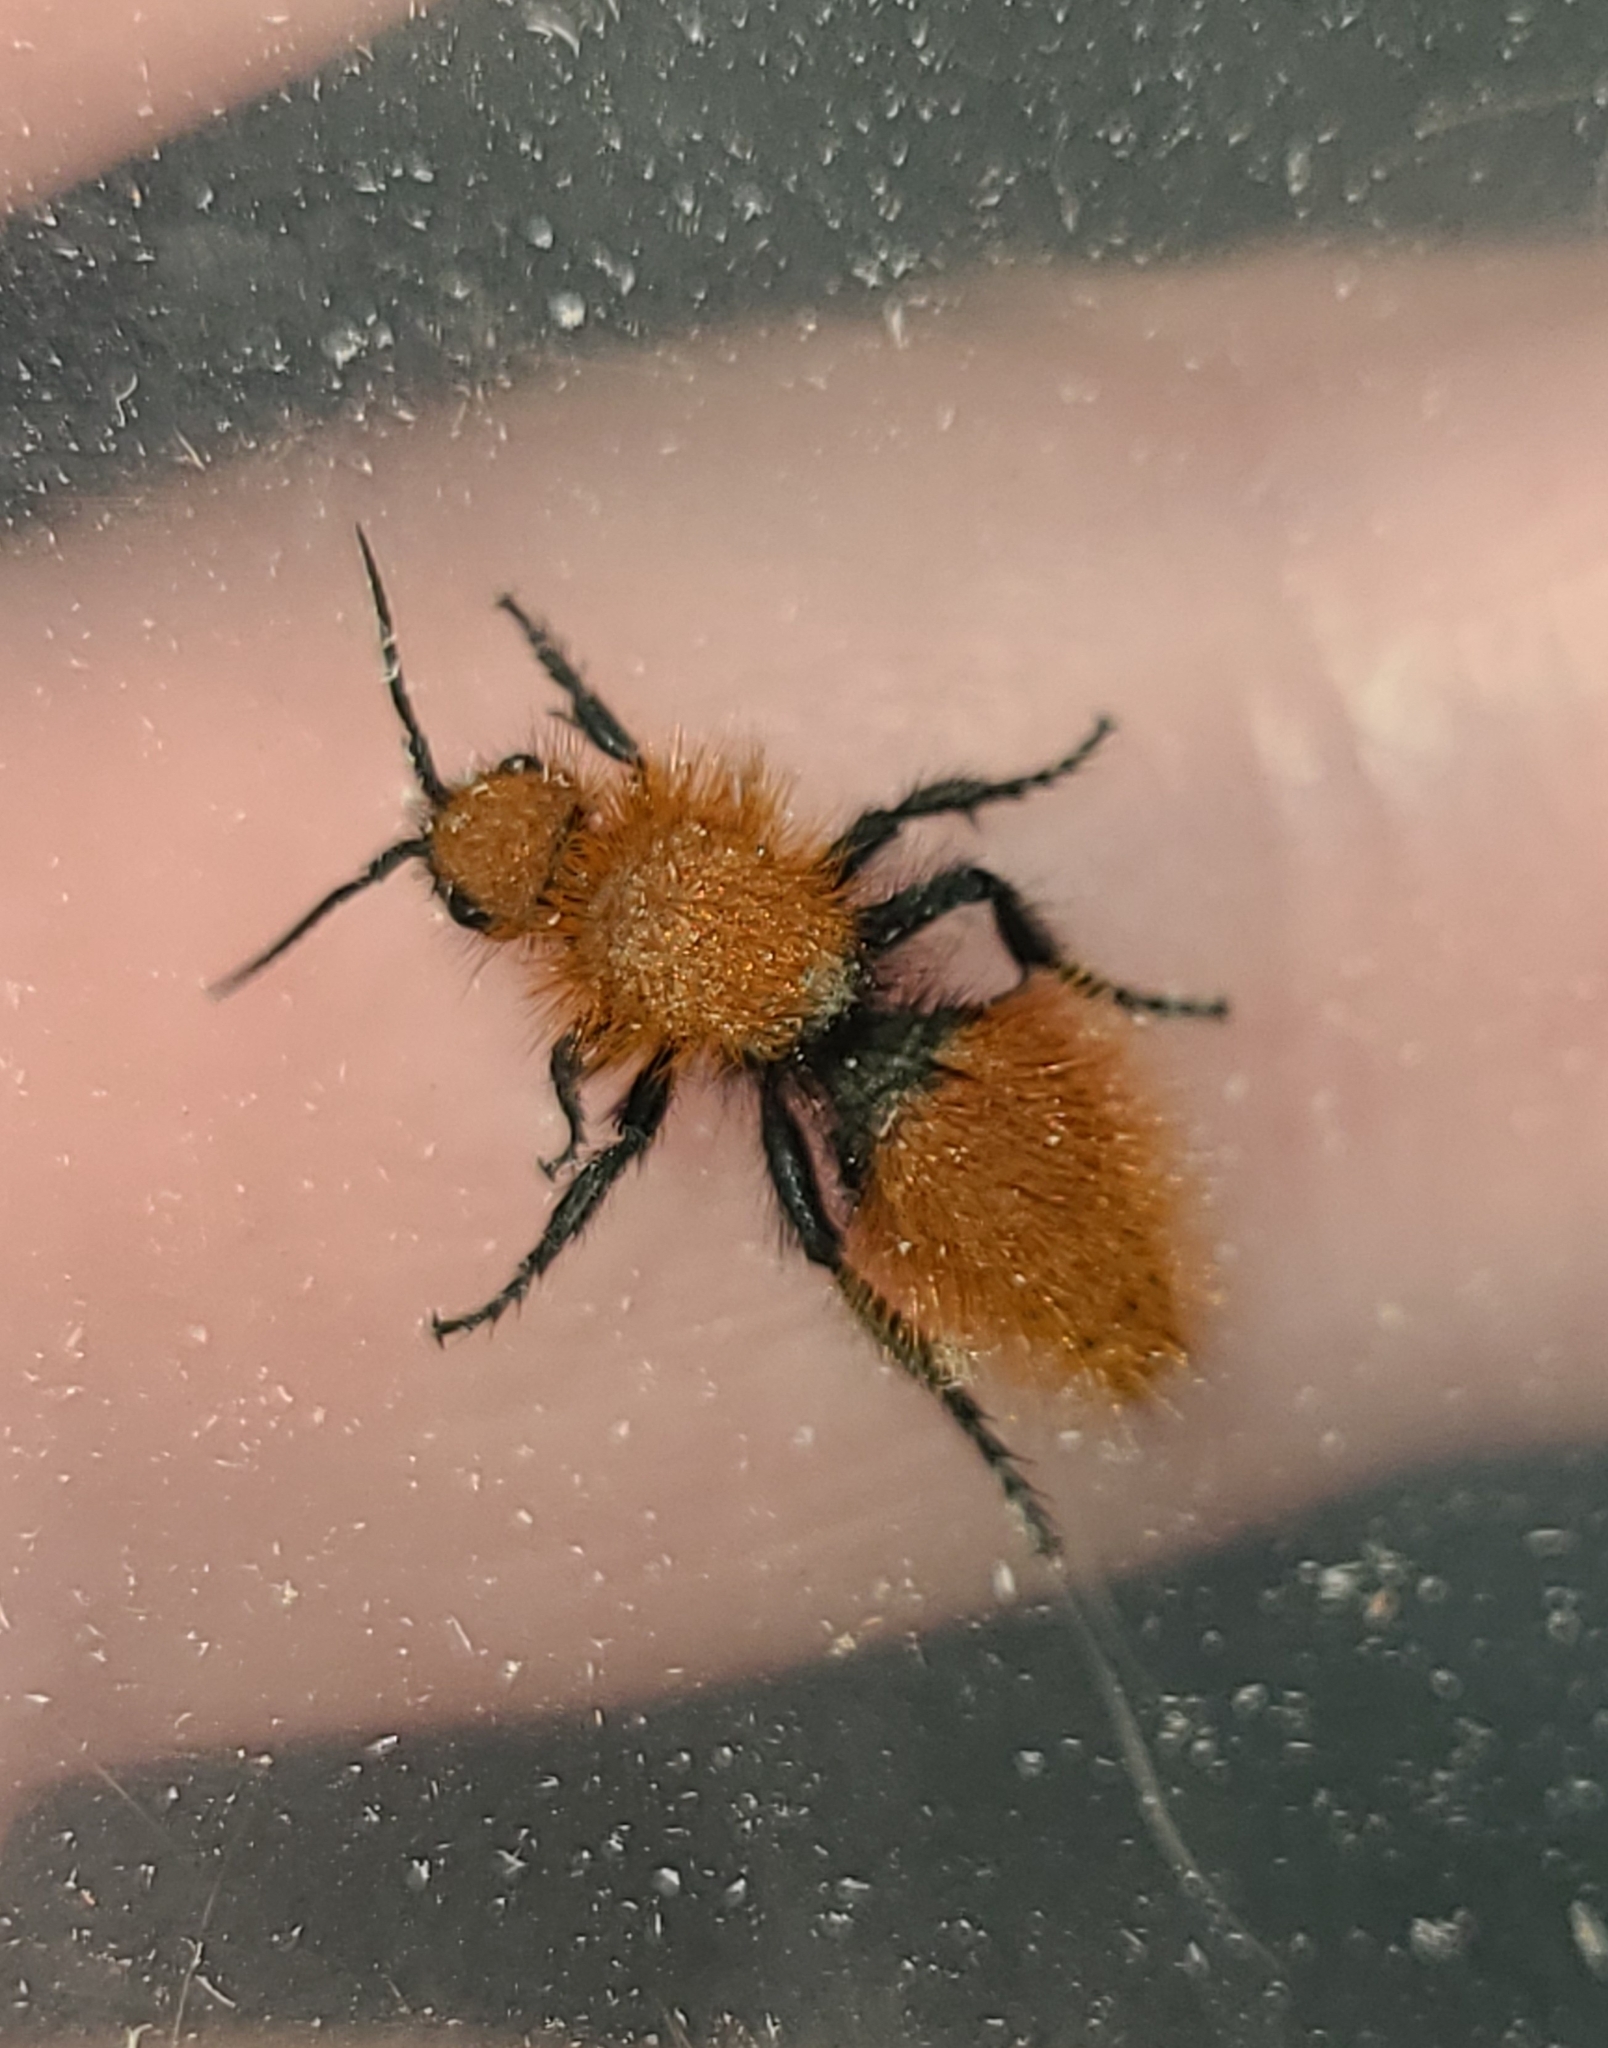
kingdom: Animalia
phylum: Arthropoda
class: Insecta
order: Hymenoptera
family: Mutillidae
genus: Dasymutilla
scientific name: Dasymutilla
